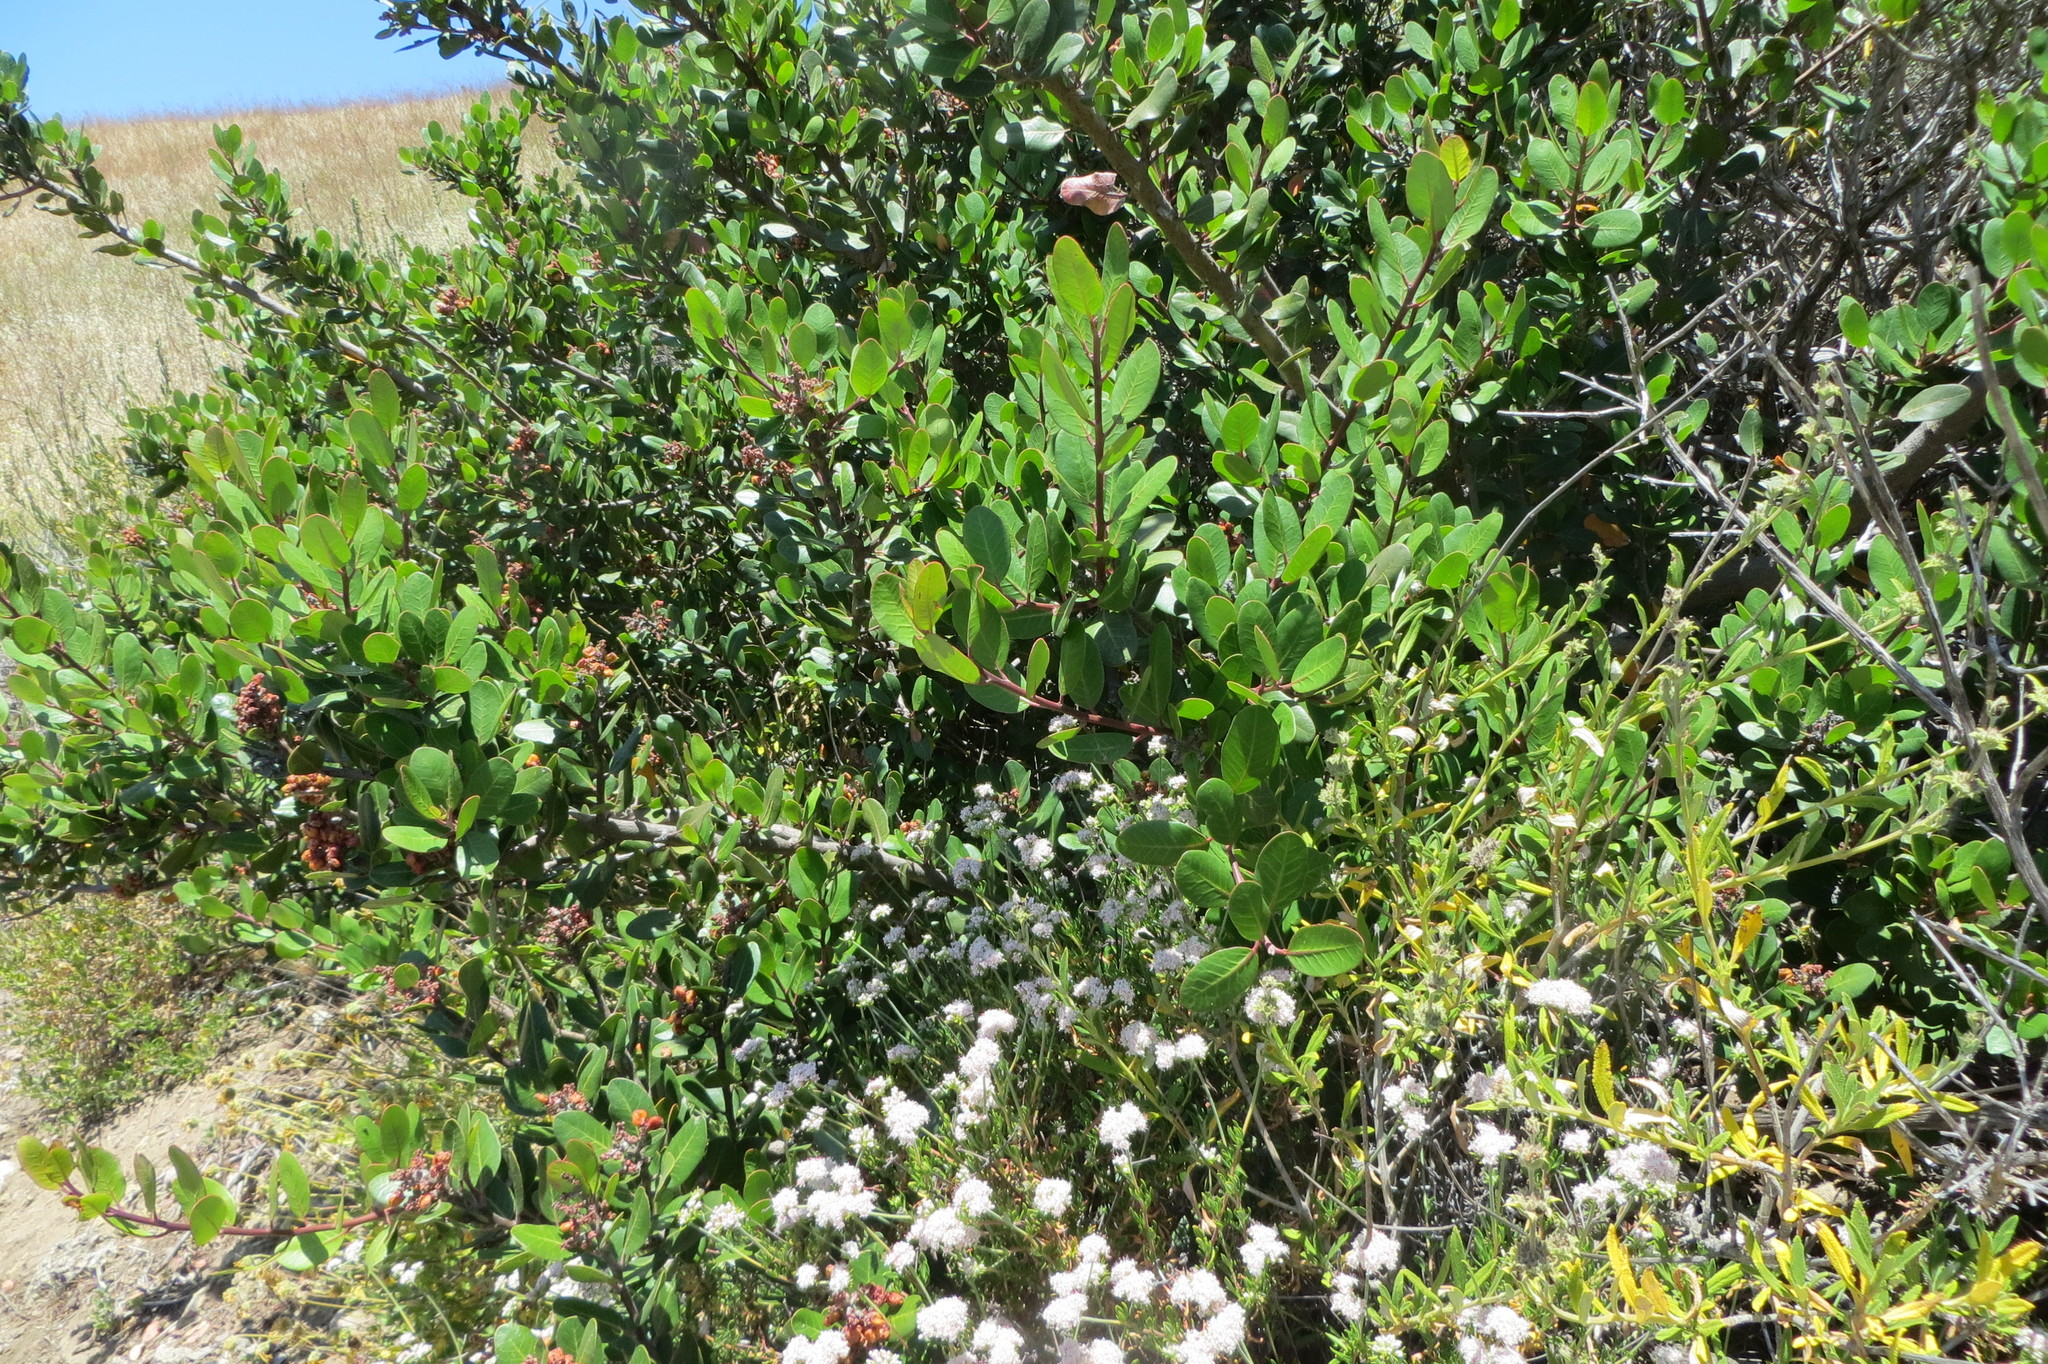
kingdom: Plantae
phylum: Tracheophyta
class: Magnoliopsida
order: Sapindales
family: Anacardiaceae
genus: Rhus
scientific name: Rhus integrifolia
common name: Lemonade sumac
